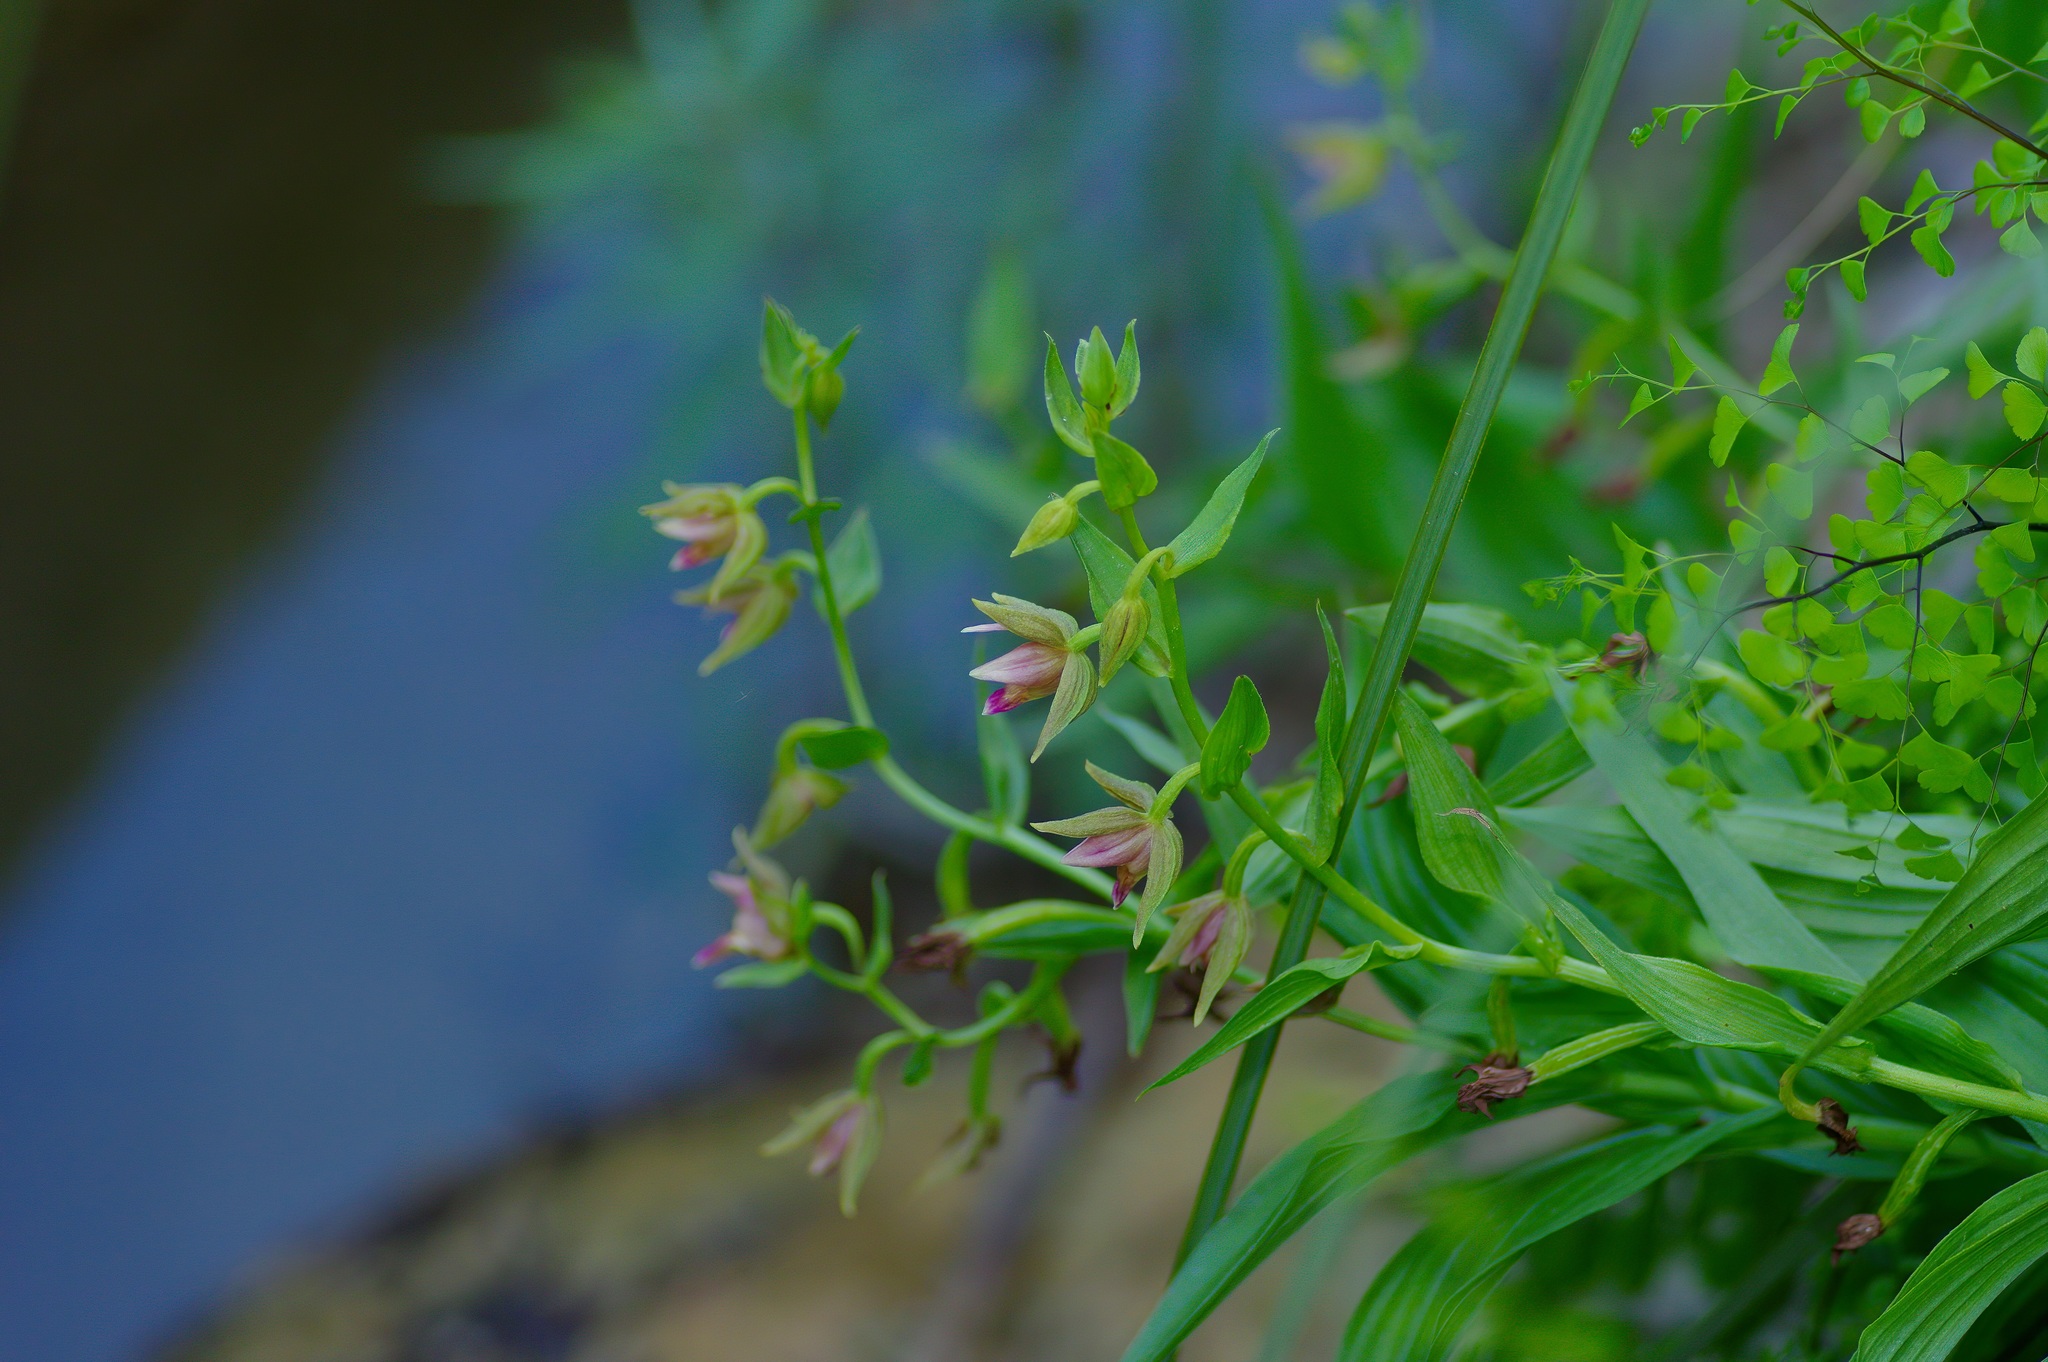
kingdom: Plantae
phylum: Tracheophyta
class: Liliopsida
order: Asparagales
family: Orchidaceae
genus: Epipactis
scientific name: Epipactis gigantea
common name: Chatterbox
